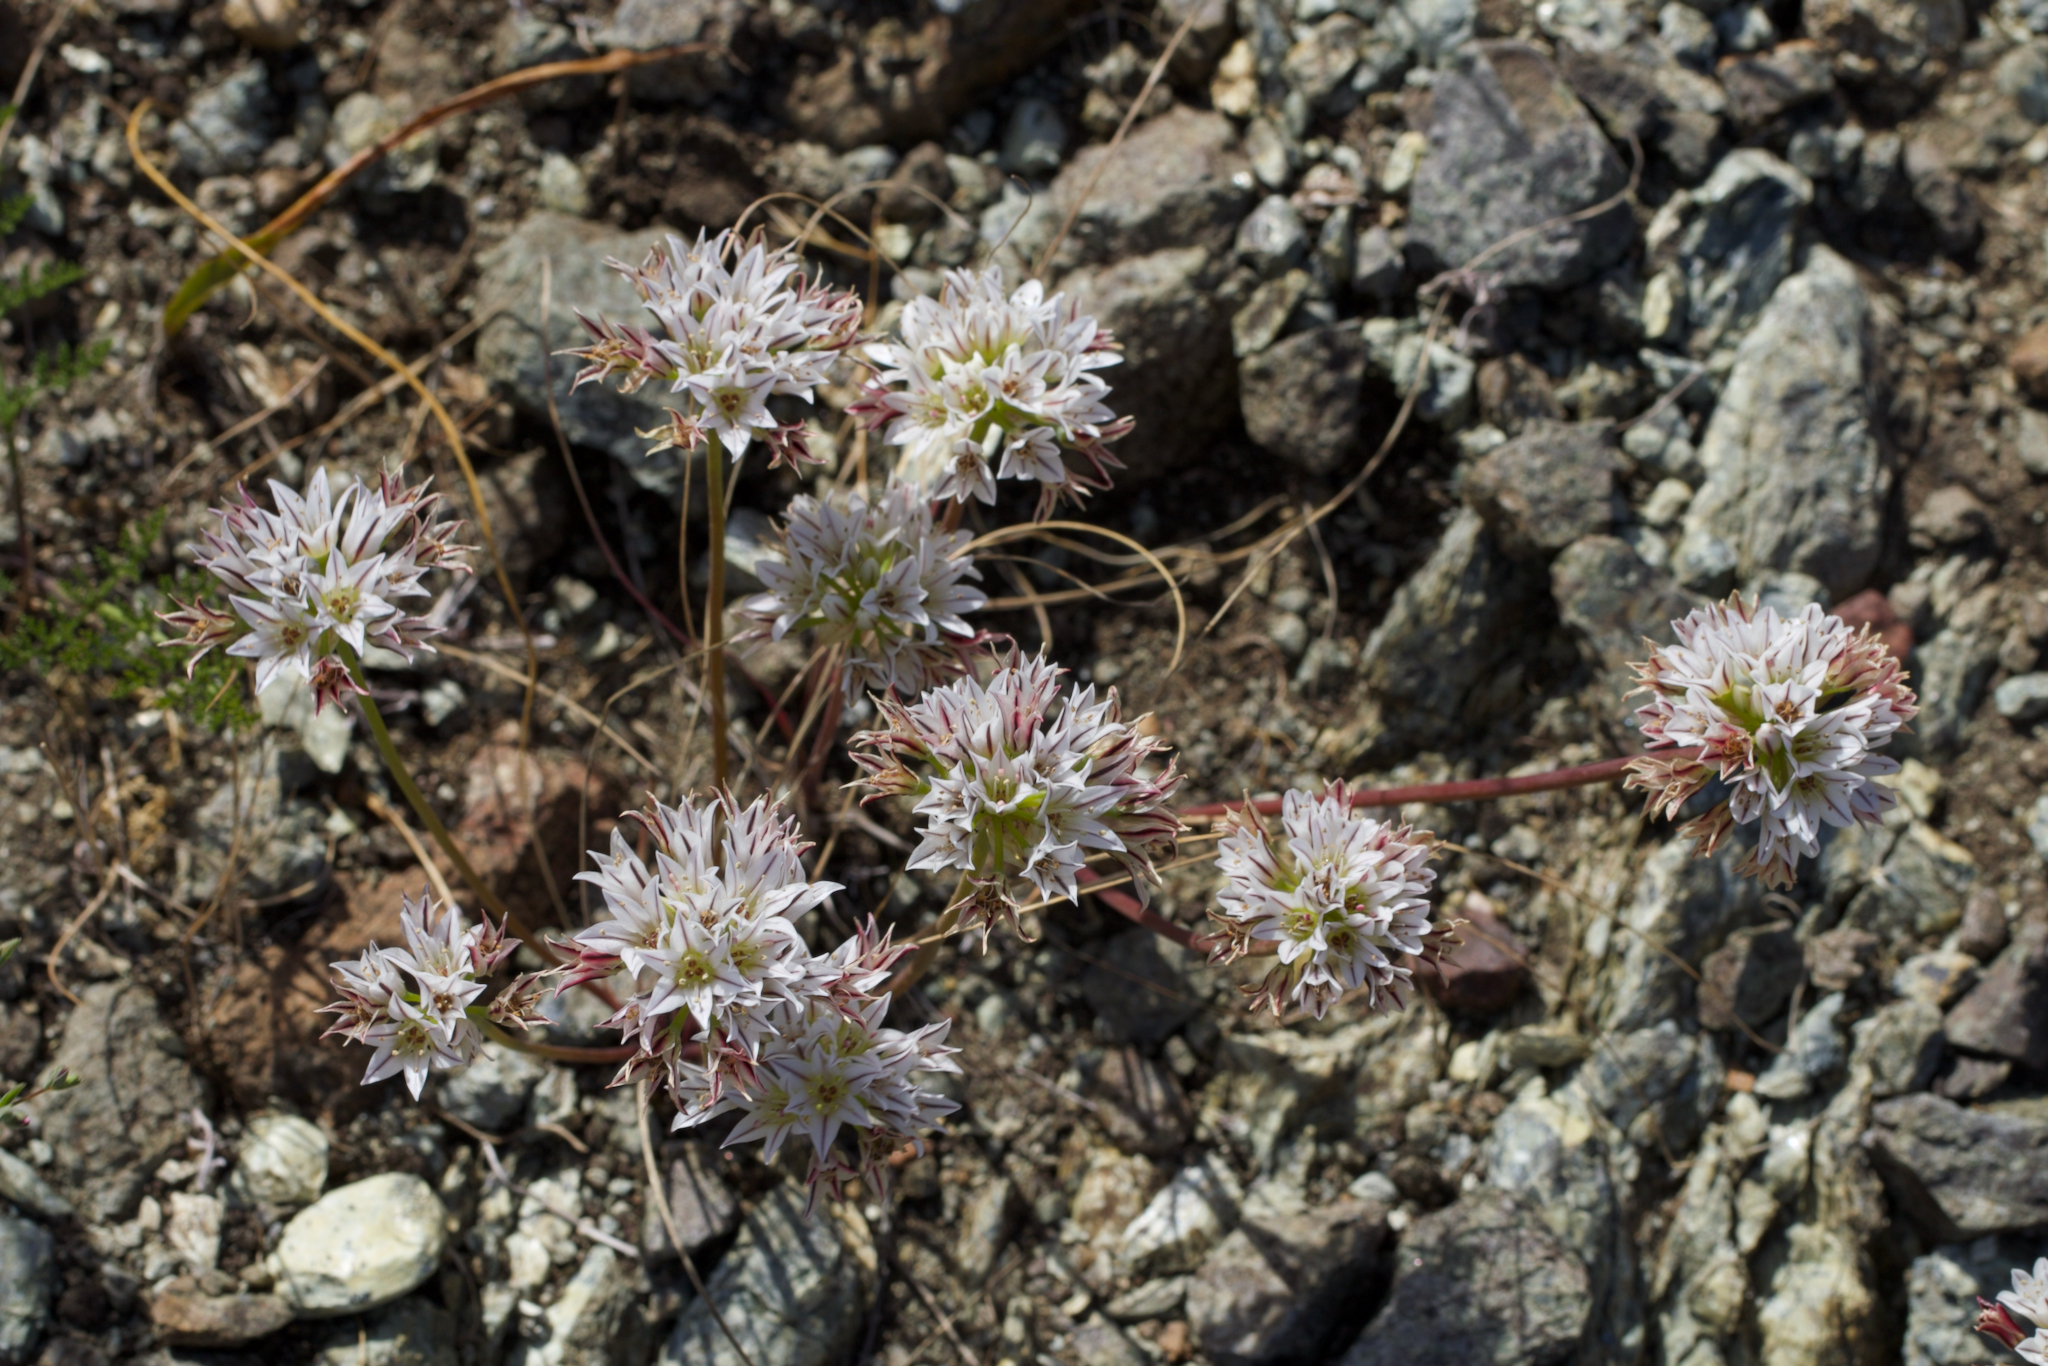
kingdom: Plantae
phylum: Tracheophyta
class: Liliopsida
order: Asparagales
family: Amaryllidaceae
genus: Allium
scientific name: Allium lacunosum
